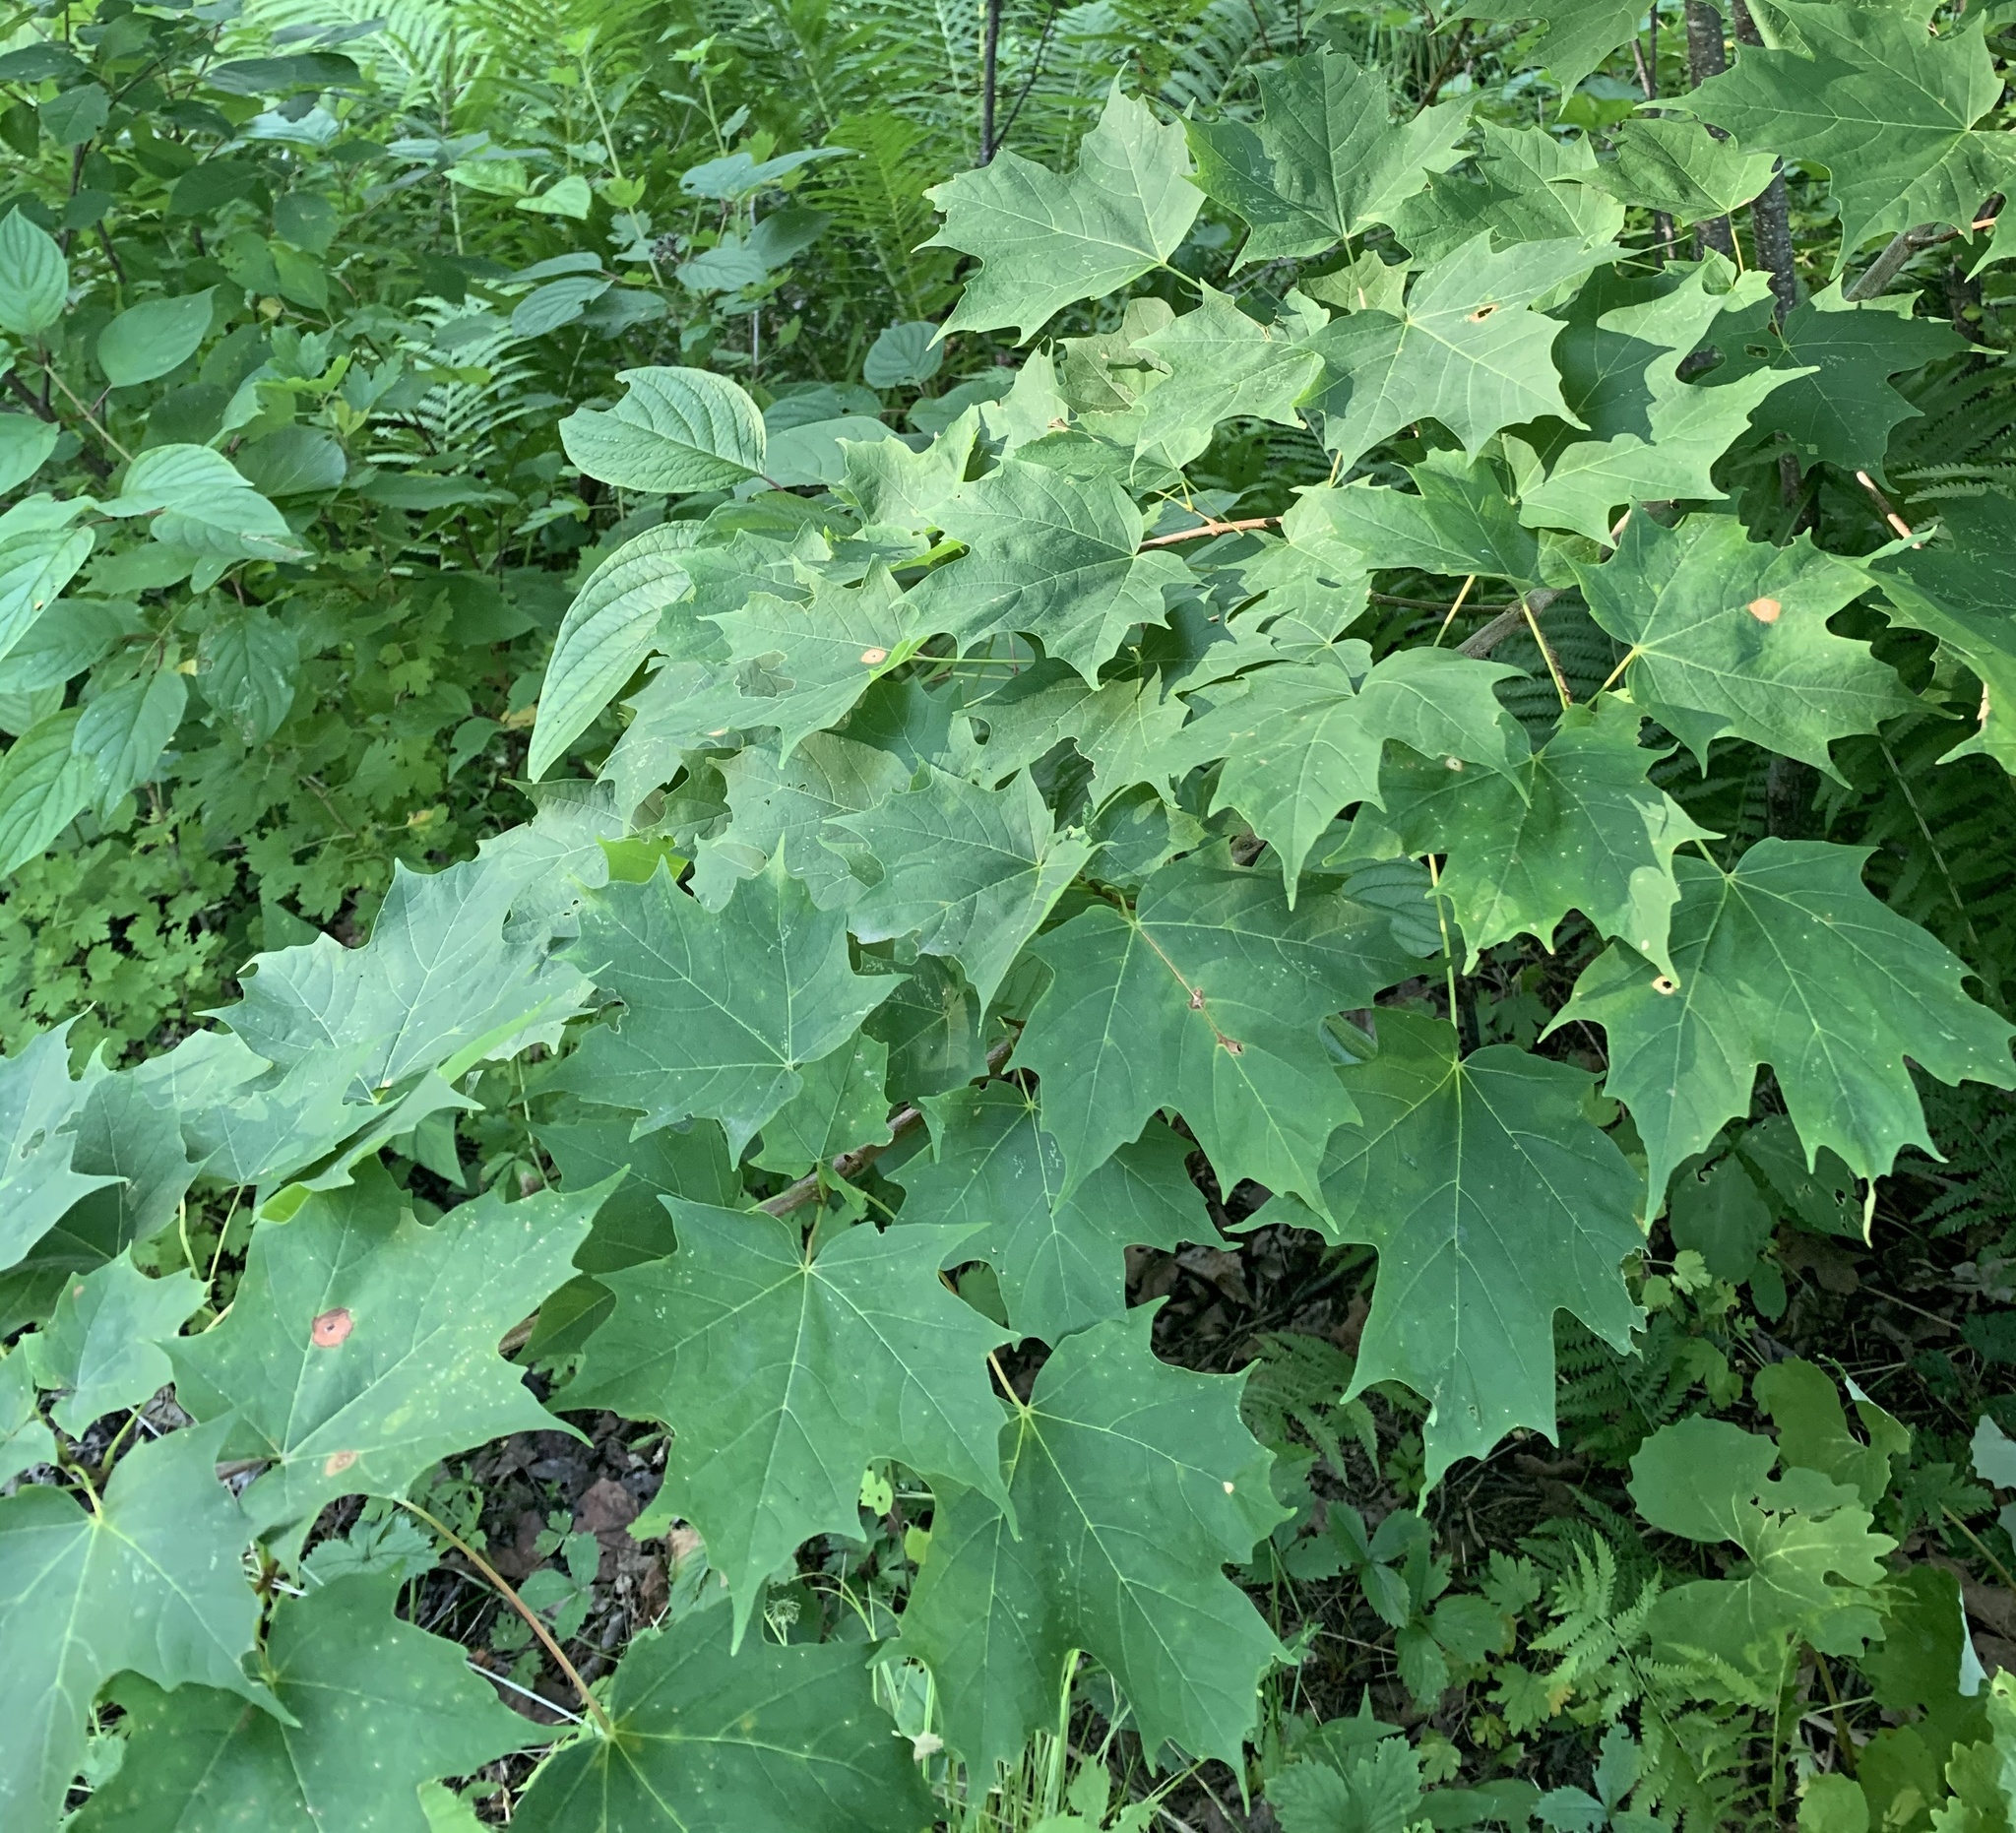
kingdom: Plantae
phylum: Tracheophyta
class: Magnoliopsida
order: Sapindales
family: Sapindaceae
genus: Acer
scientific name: Acer saccharum
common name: Sugar maple
